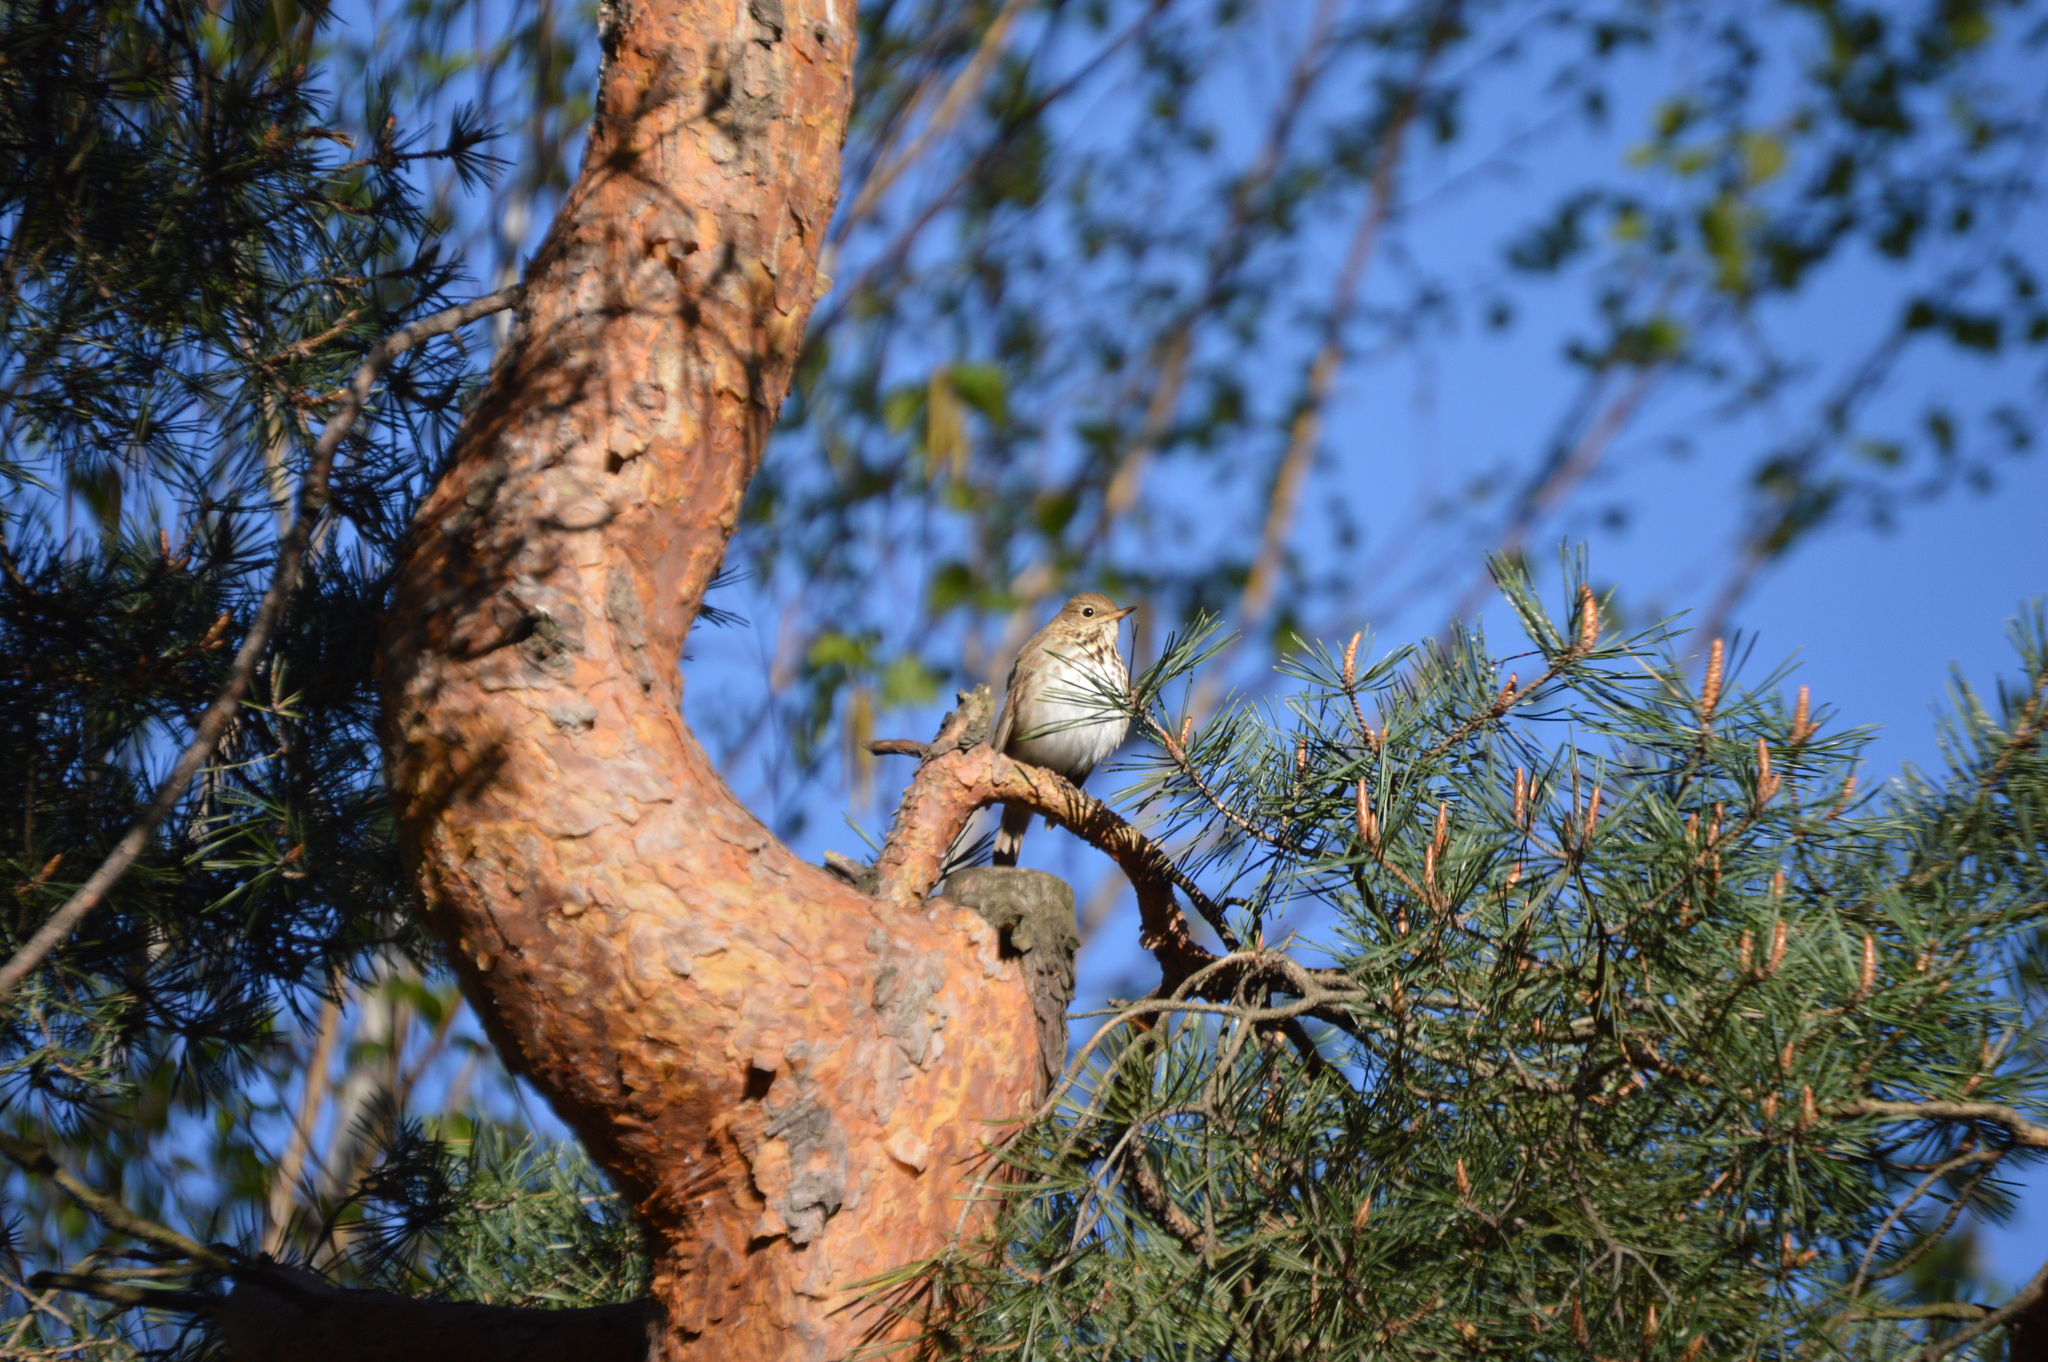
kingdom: Animalia
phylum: Chordata
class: Aves
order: Passeriformes
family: Turdidae
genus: Catharus
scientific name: Catharus guttatus
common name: Hermit thrush
